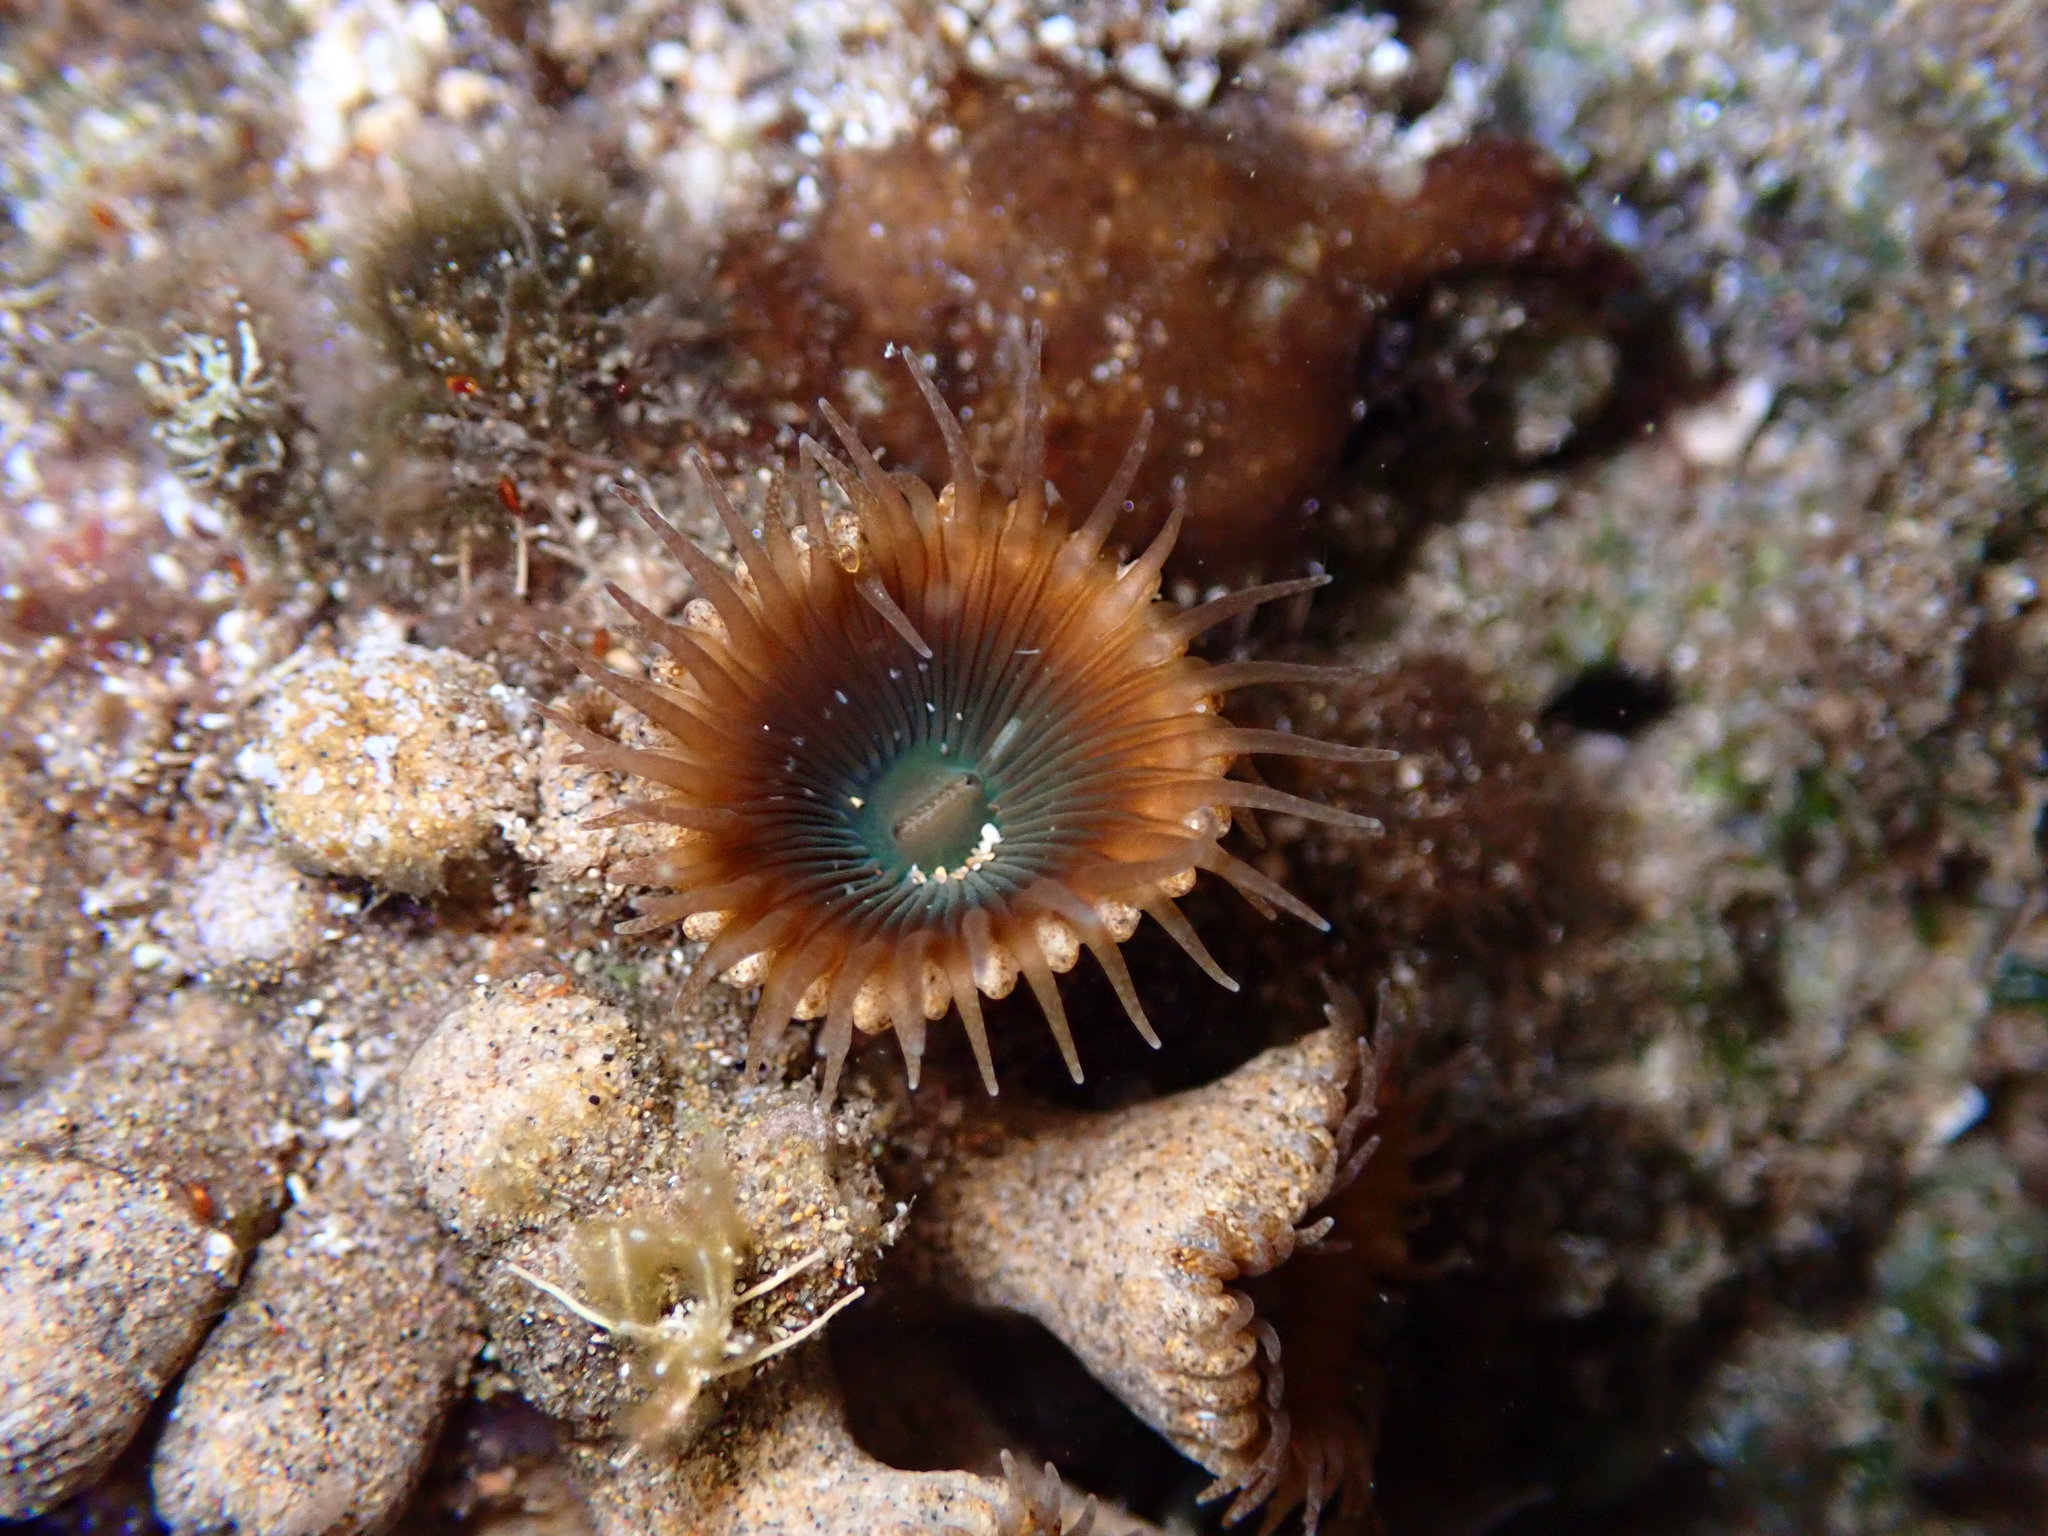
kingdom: Animalia
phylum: Cnidaria
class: Anthozoa
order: Zoantharia
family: Sphenopidae
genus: Palythoa
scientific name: Palythoa mutuki
